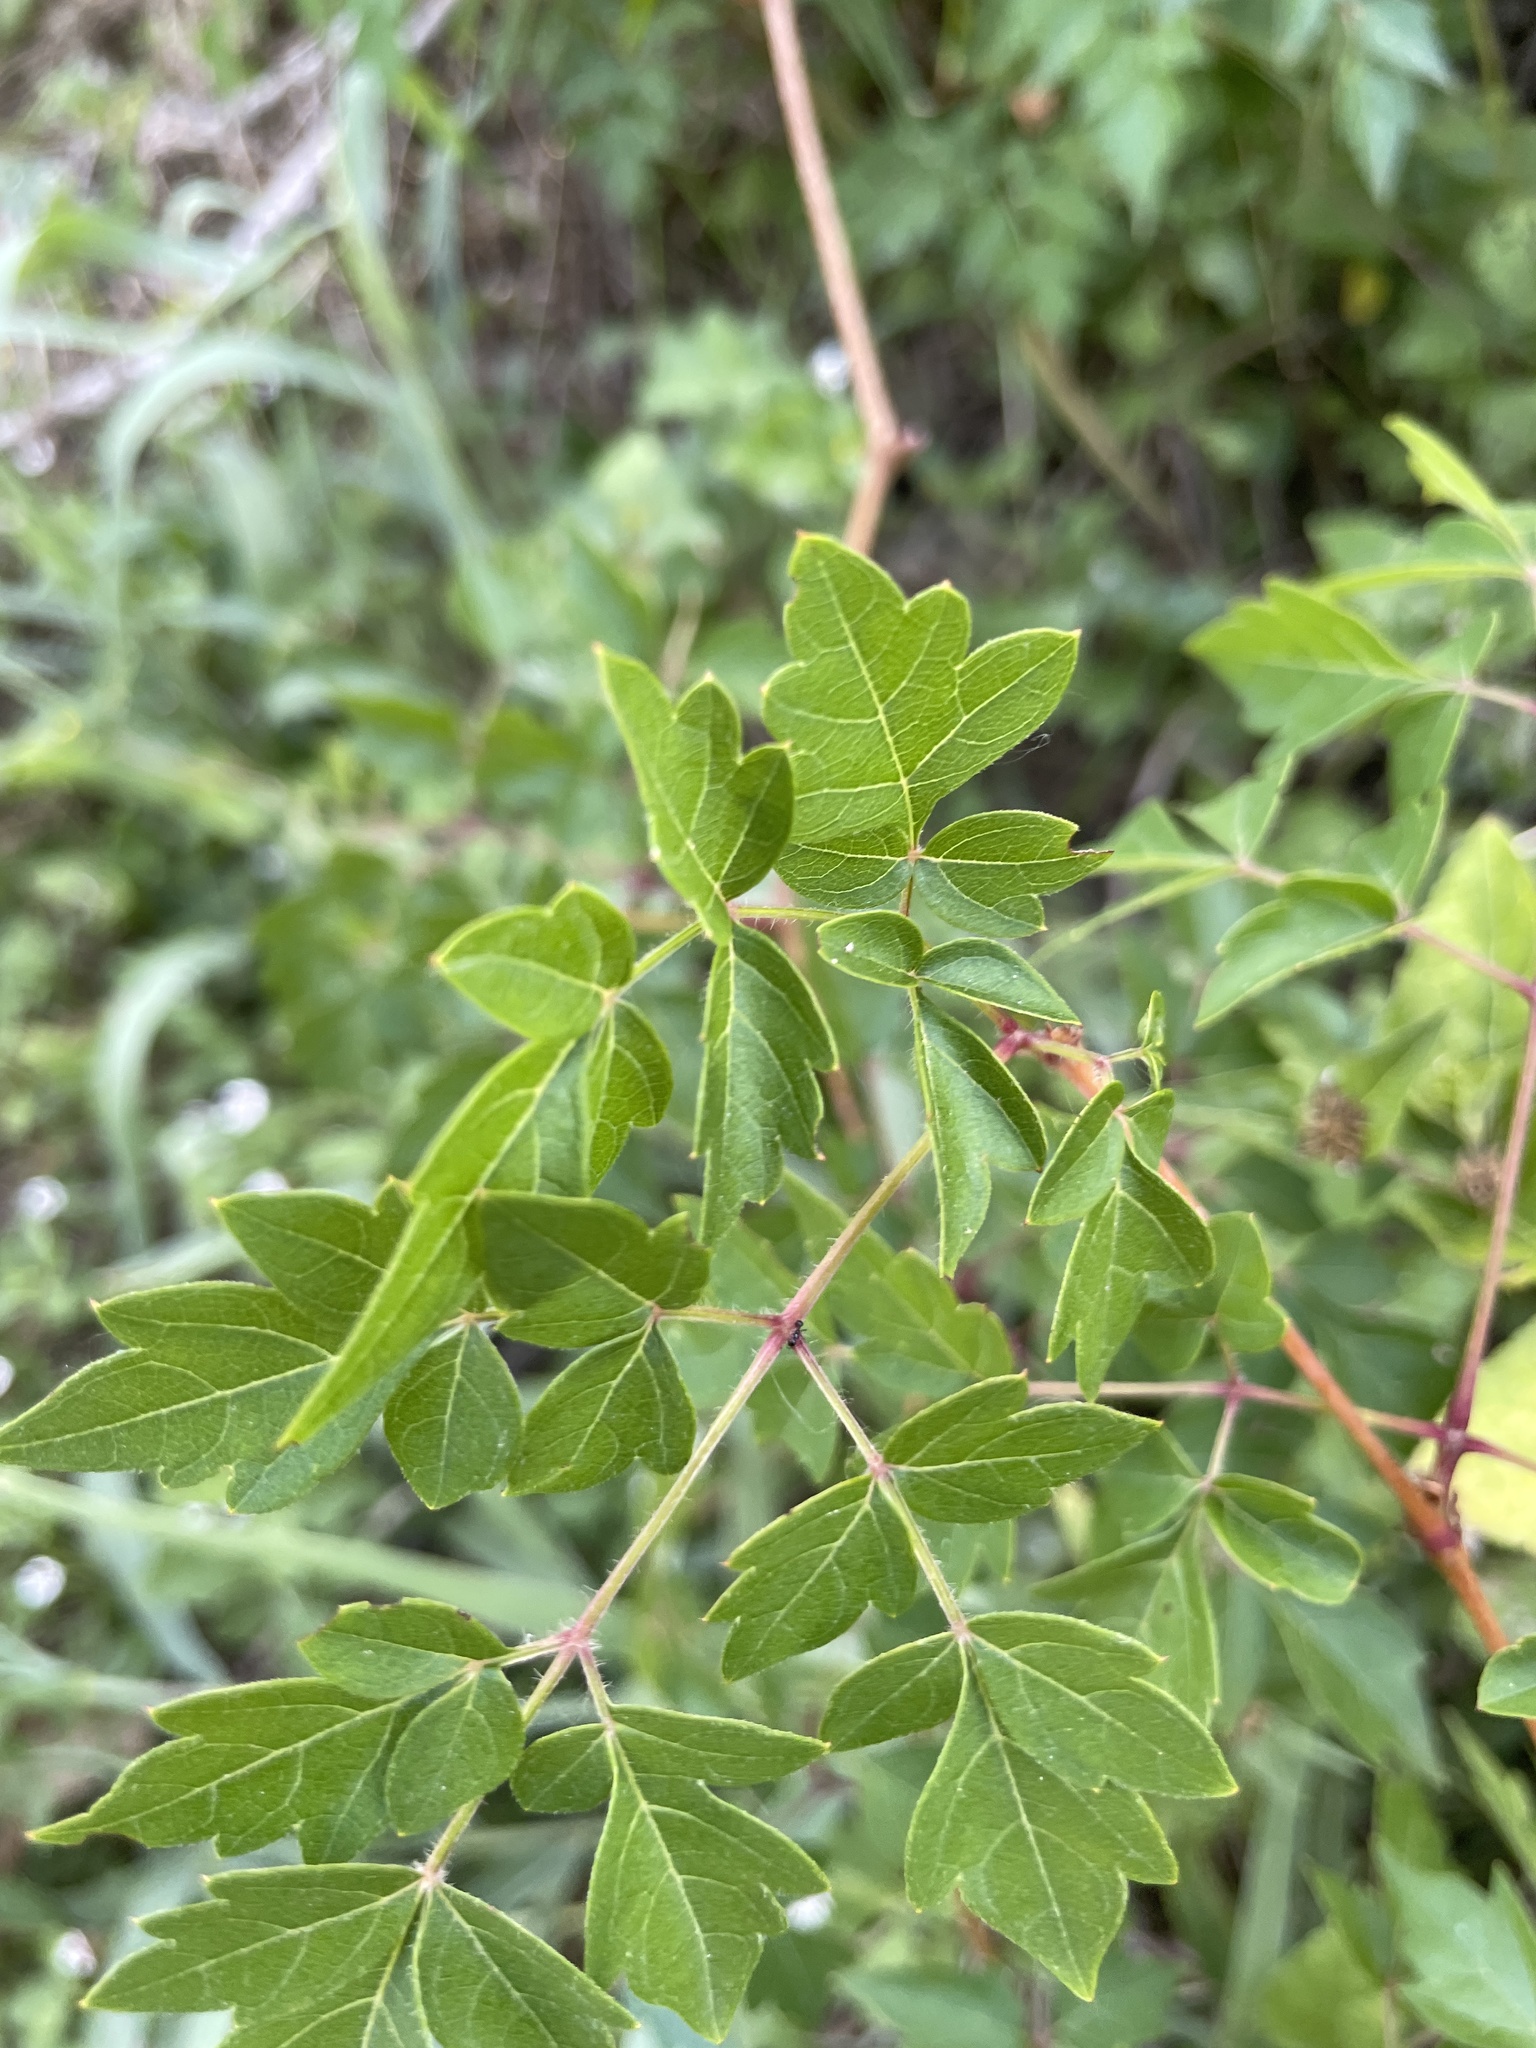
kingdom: Plantae
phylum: Tracheophyta
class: Magnoliopsida
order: Vitales
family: Vitaceae
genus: Nekemias
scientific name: Nekemias arborea
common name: Peppervine
